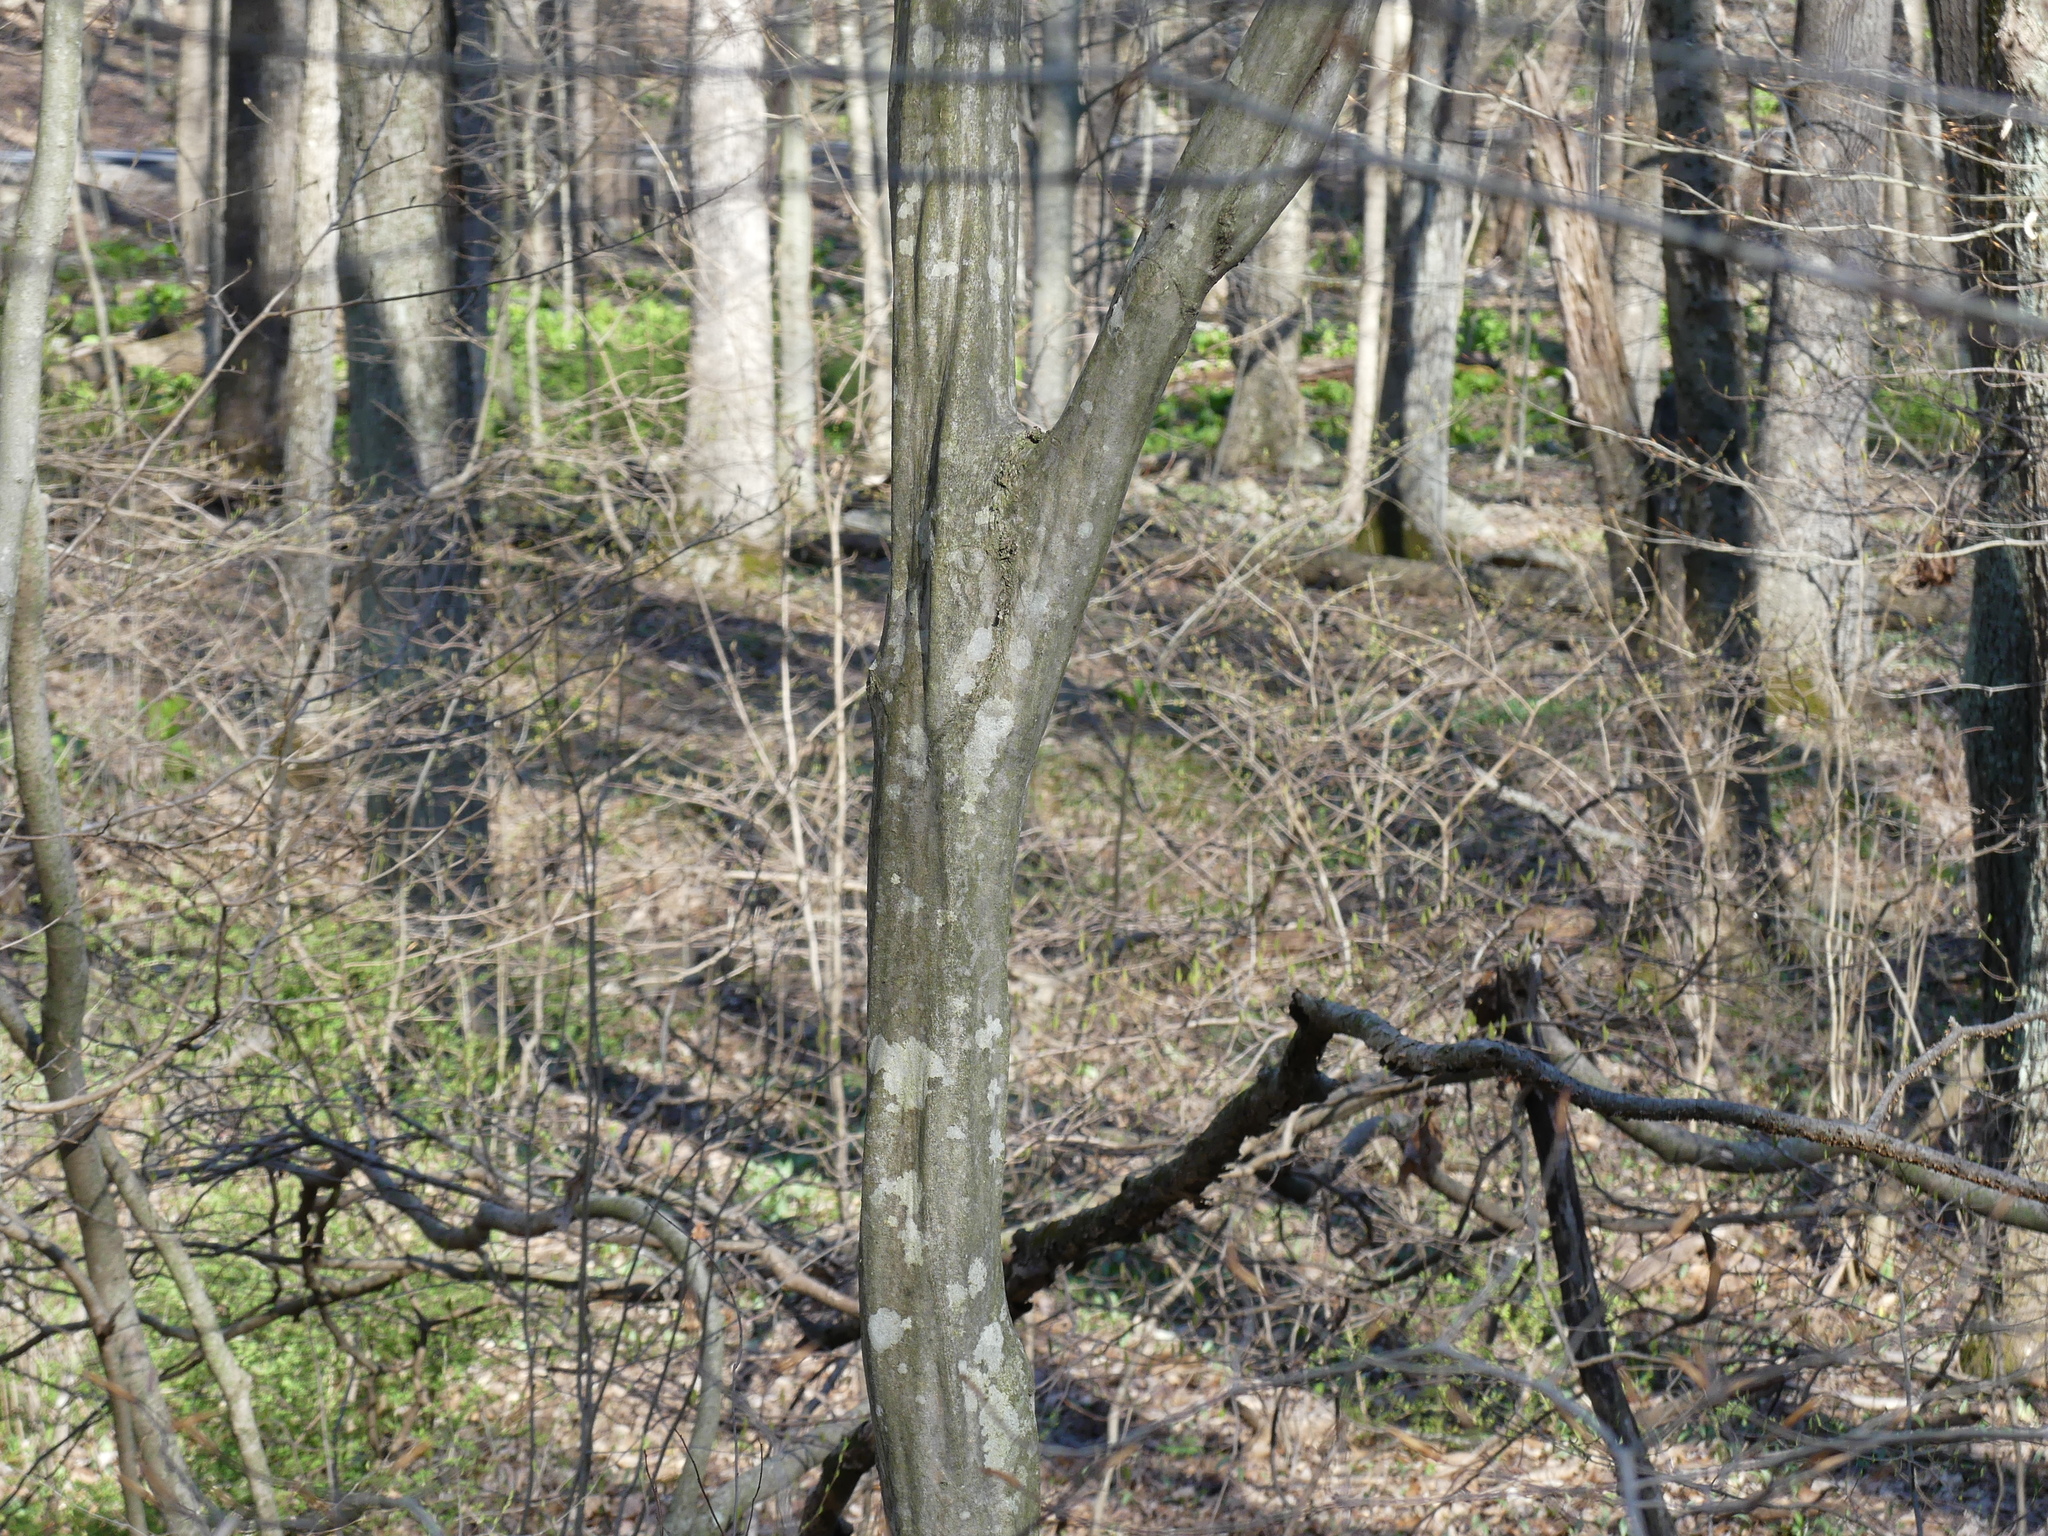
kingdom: Plantae
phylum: Tracheophyta
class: Magnoliopsida
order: Fagales
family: Betulaceae
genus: Carpinus
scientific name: Carpinus caroliniana
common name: American hornbeam
